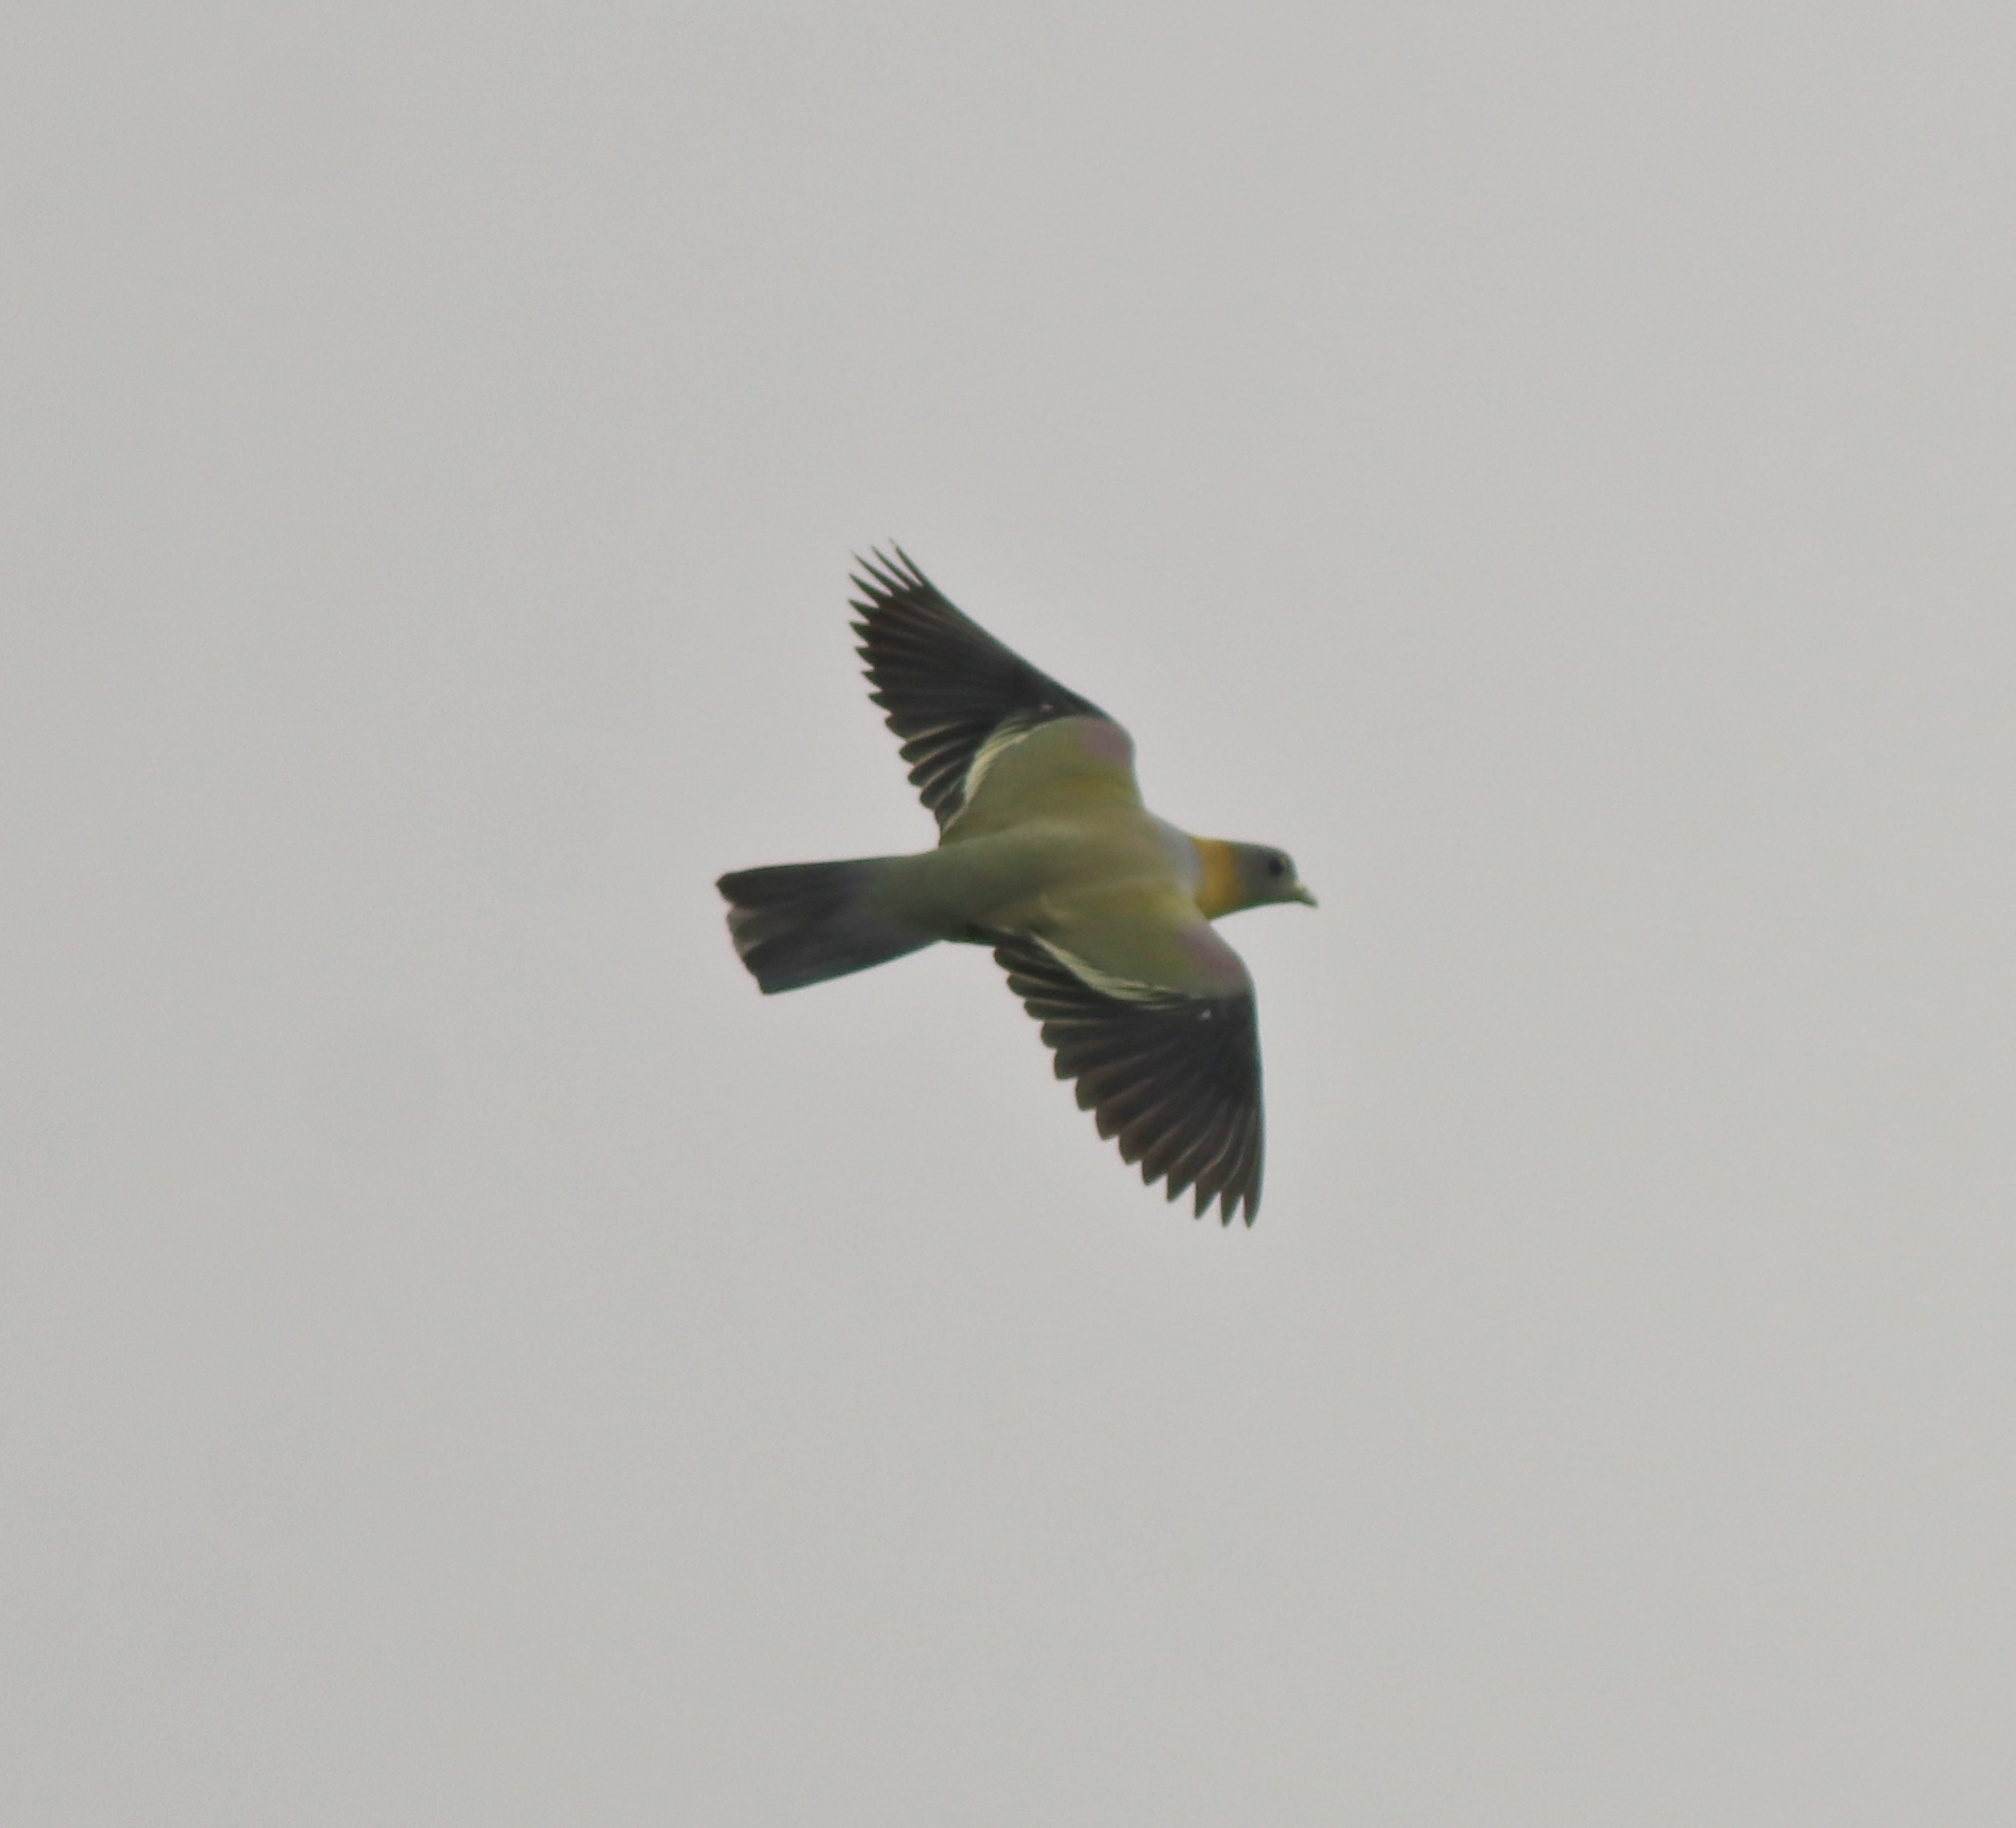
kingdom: Animalia
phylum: Chordata
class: Aves
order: Columbiformes
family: Columbidae
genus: Treron
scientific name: Treron phoenicopterus
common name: Yellow-footed green pigeon
